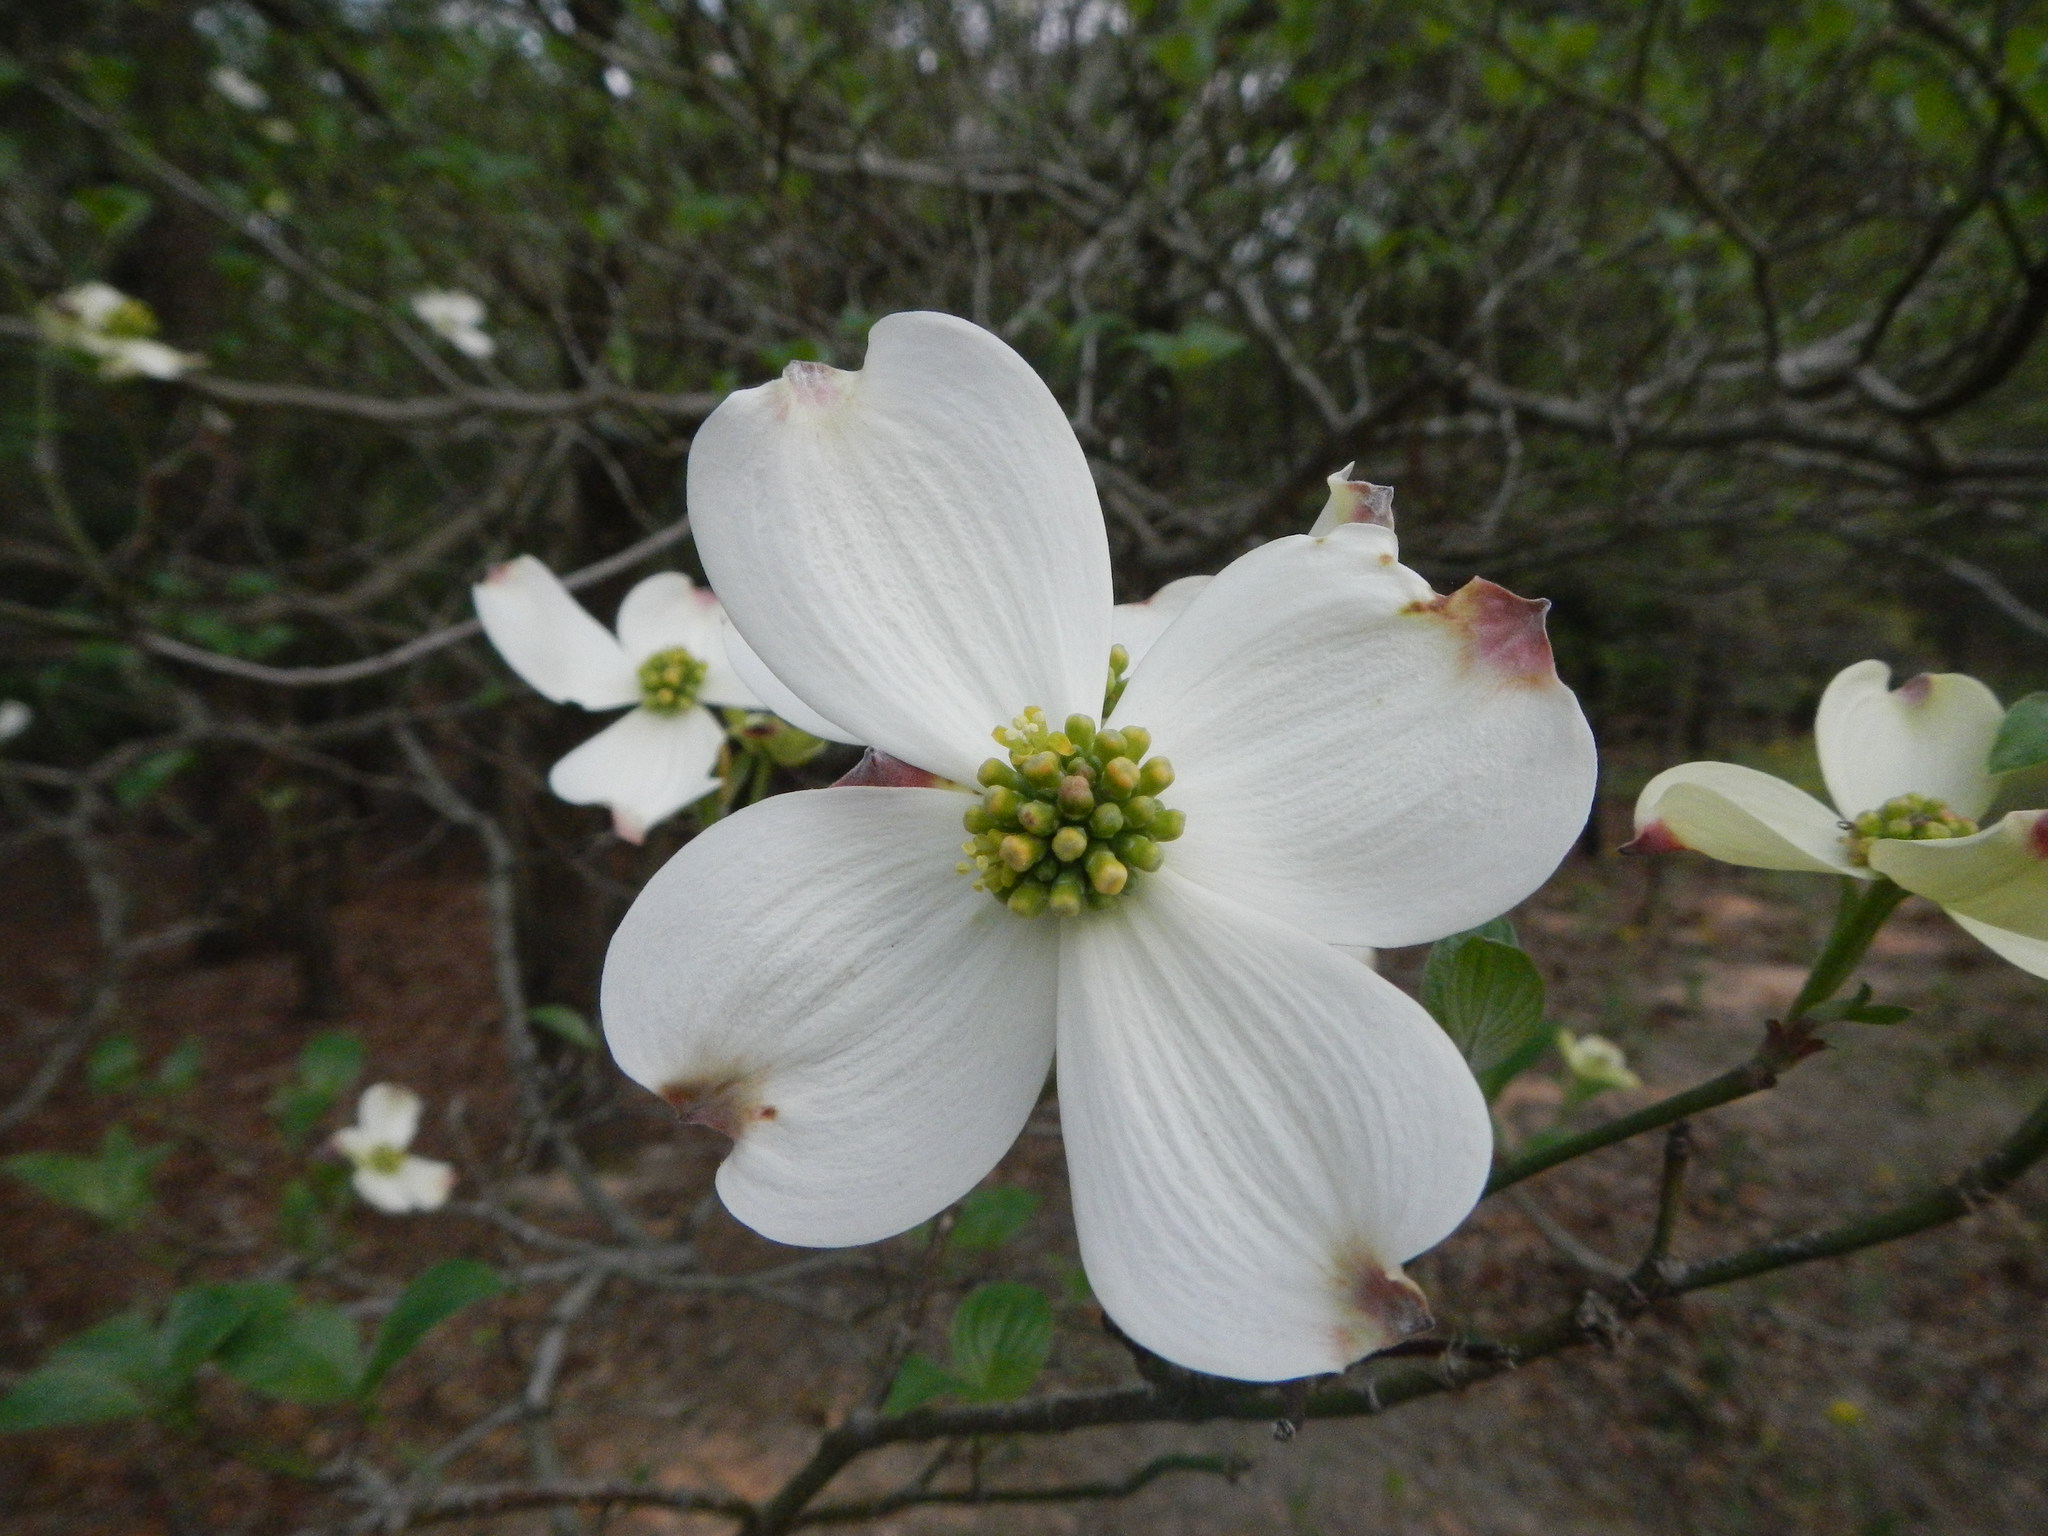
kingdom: Plantae
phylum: Tracheophyta
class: Magnoliopsida
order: Cornales
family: Cornaceae
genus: Cornus
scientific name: Cornus florida
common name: Flowering dogwood
